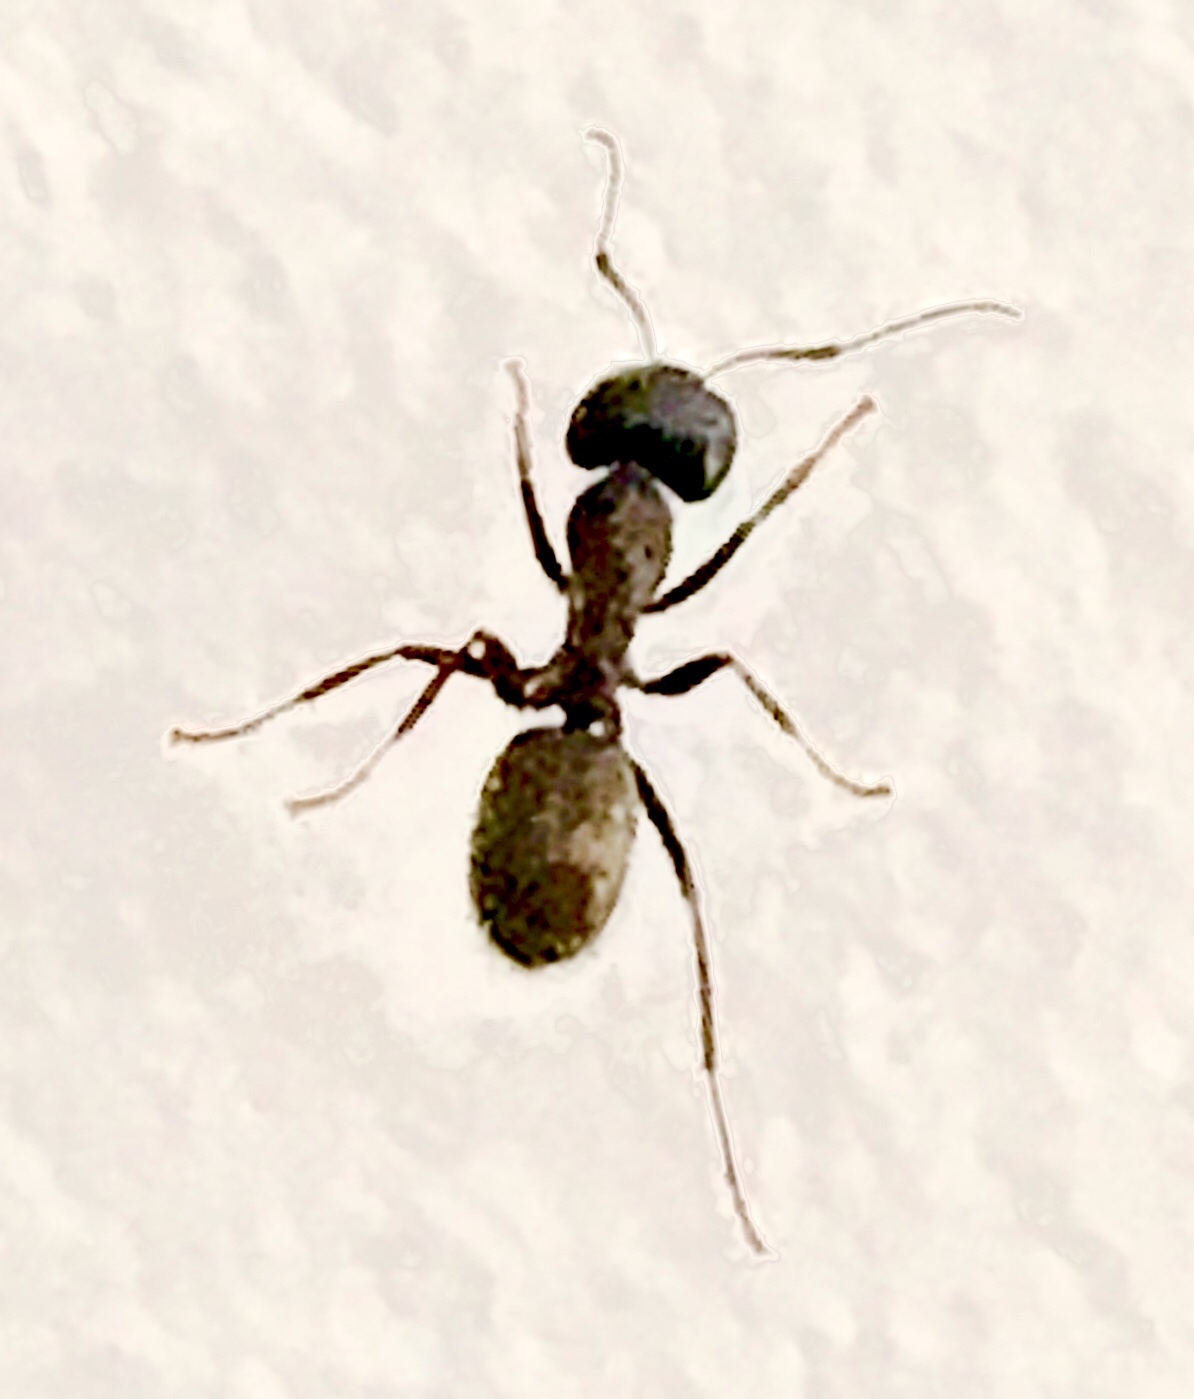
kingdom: Animalia
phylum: Arthropoda
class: Insecta
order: Hymenoptera
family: Formicidae
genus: Camponotus
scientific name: Camponotus pennsylvanicus
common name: Black carpenter ant
